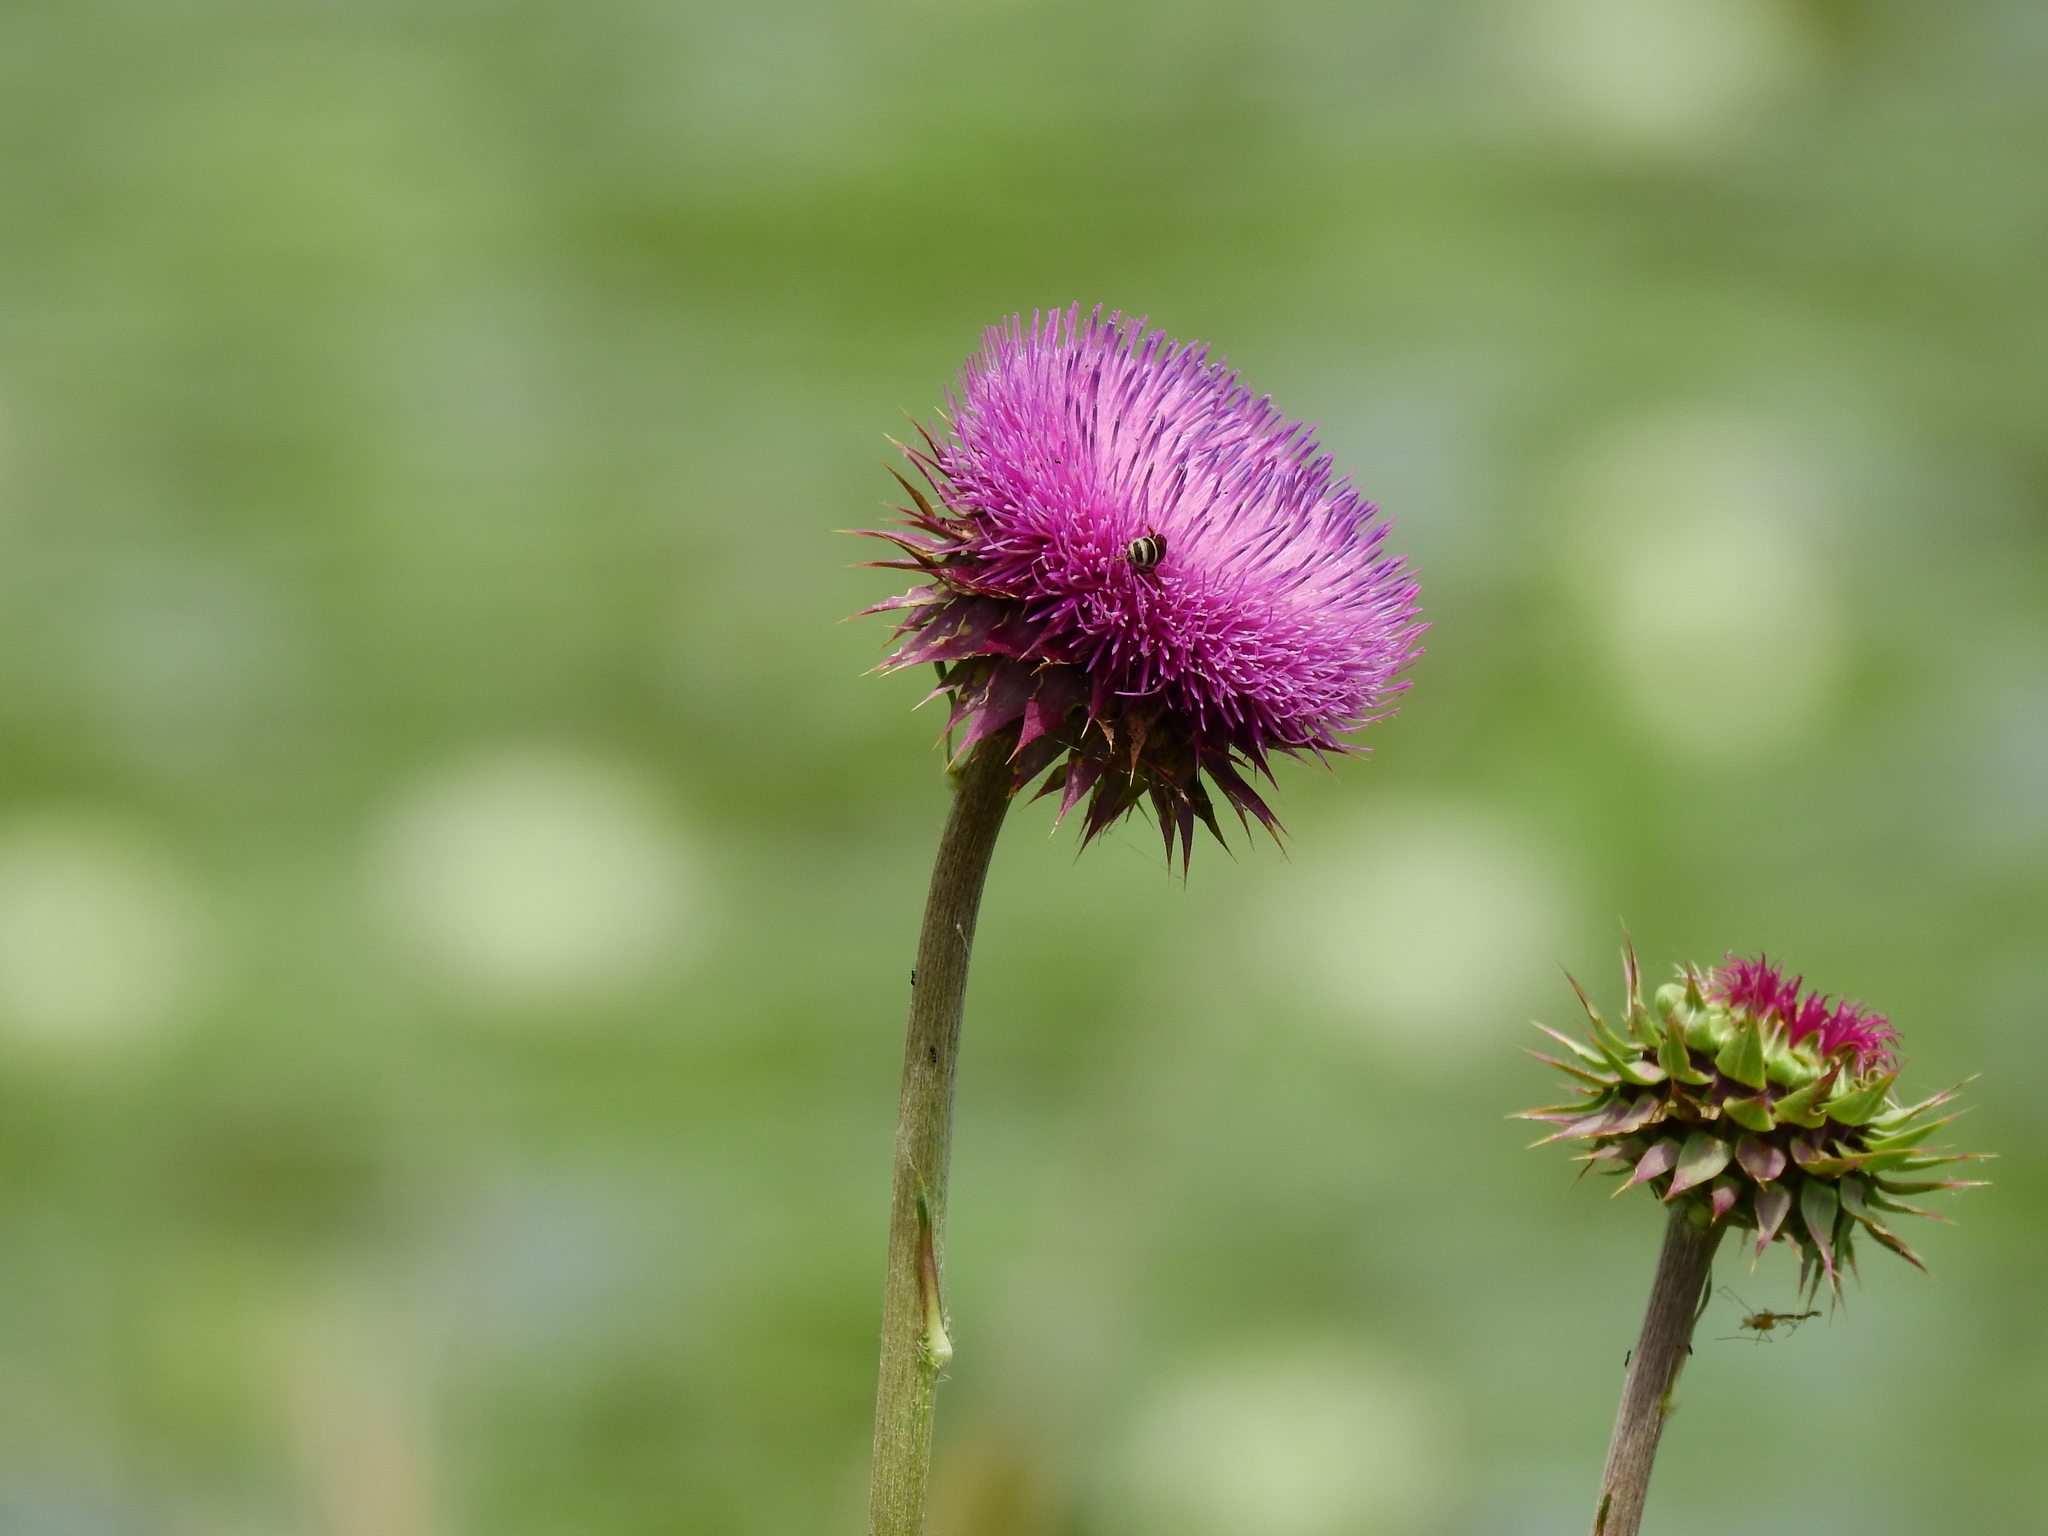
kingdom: Plantae
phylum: Tracheophyta
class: Magnoliopsida
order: Asterales
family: Asteraceae
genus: Carduus
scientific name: Carduus nutans
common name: Musk thistle
